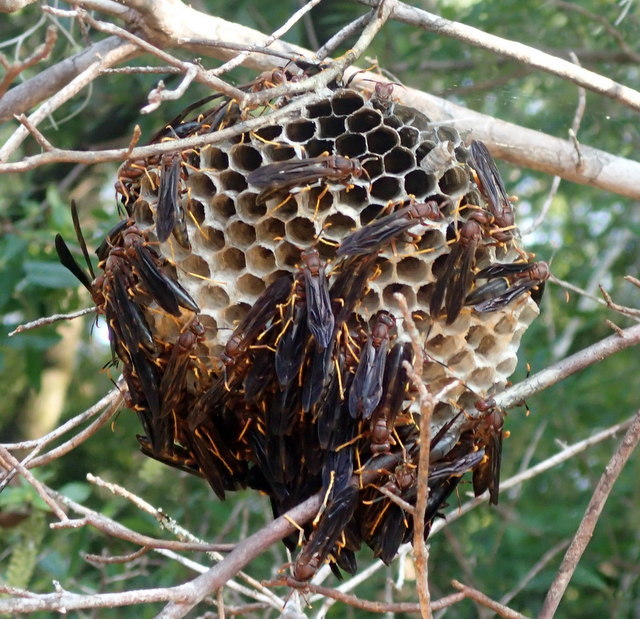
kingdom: Animalia
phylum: Arthropoda
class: Insecta
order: Hymenoptera
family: Eumenidae
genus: Polistes
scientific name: Polistes annularis
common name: Ringed paper wasp
